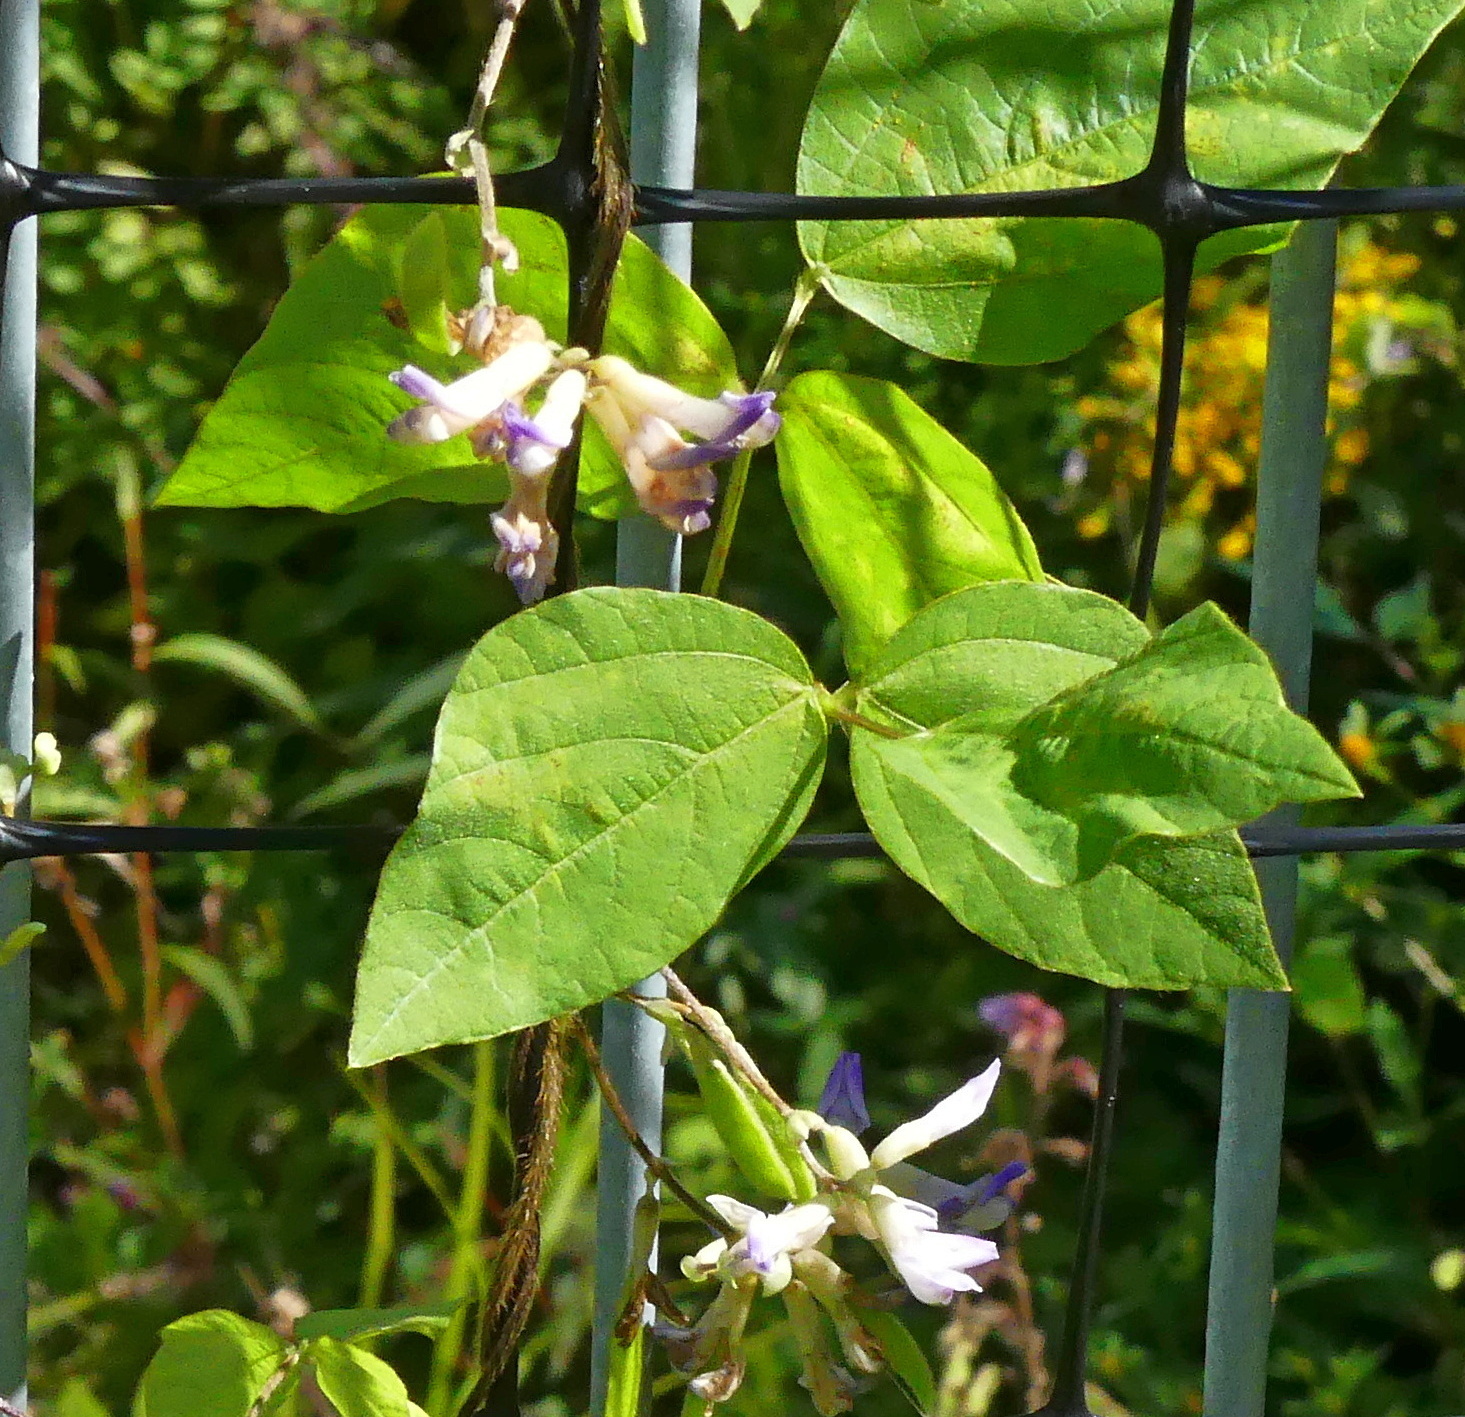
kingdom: Plantae
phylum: Tracheophyta
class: Magnoliopsida
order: Fabales
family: Fabaceae
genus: Amphicarpaea
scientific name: Amphicarpaea bracteata
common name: American hog peanut
